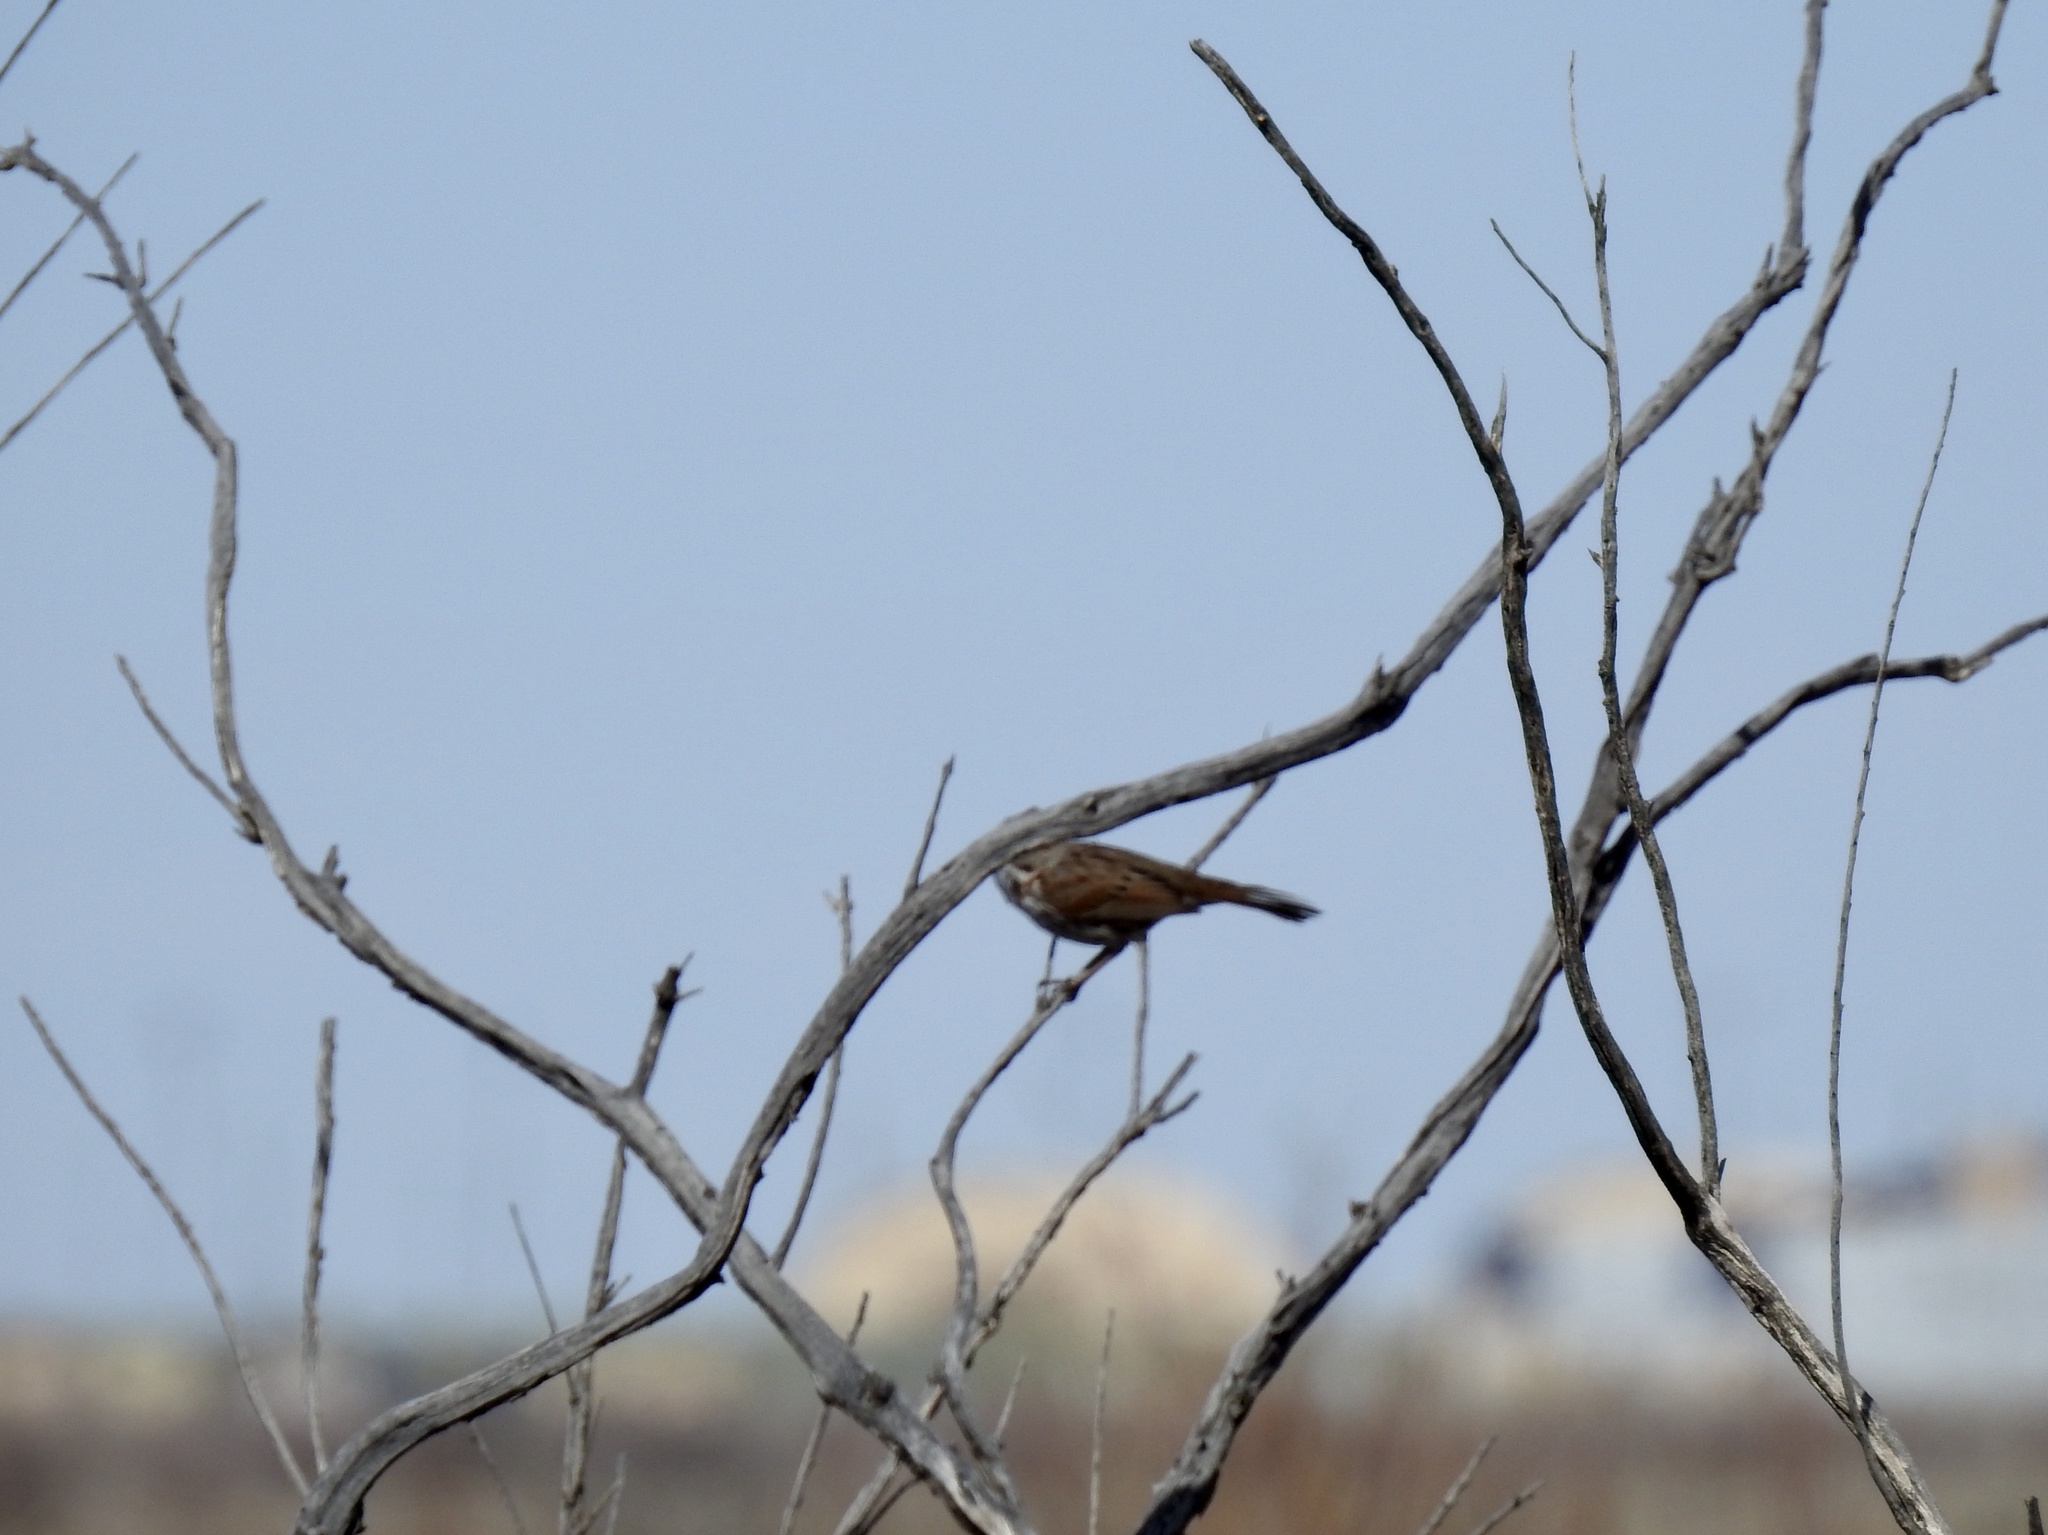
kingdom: Animalia
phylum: Chordata
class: Aves
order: Passeriformes
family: Passerellidae
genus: Melospiza
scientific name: Melospiza melodia
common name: Song sparrow
